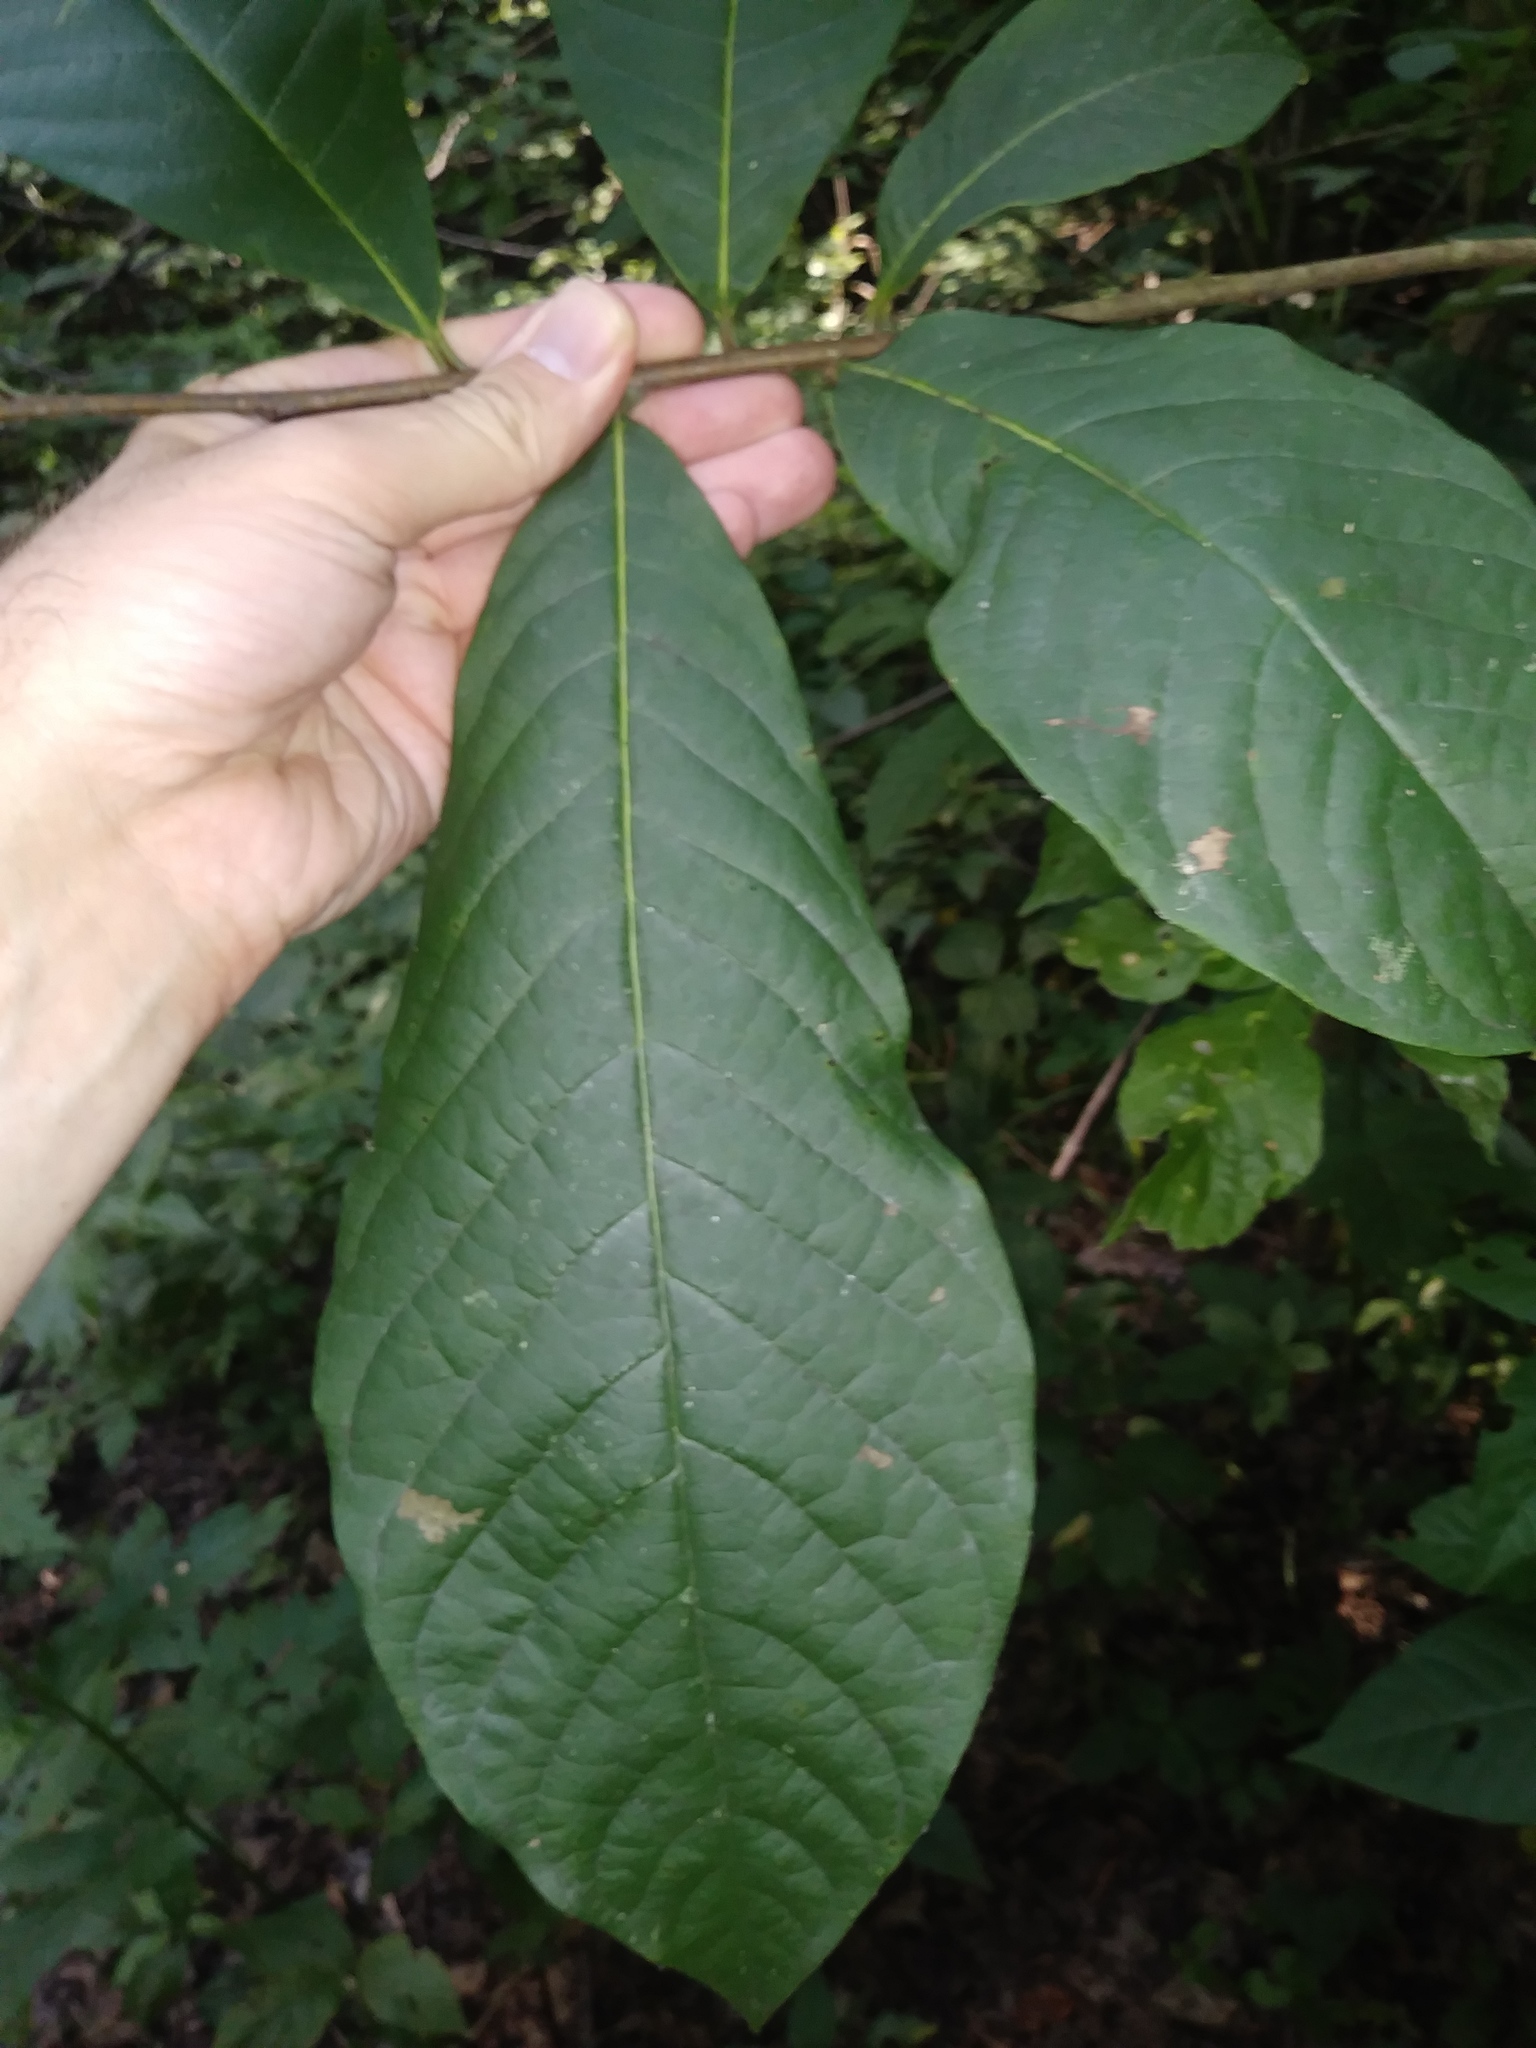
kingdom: Plantae
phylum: Tracheophyta
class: Magnoliopsida
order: Magnoliales
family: Annonaceae
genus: Asimina
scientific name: Asimina triloba
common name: Dog-banana
